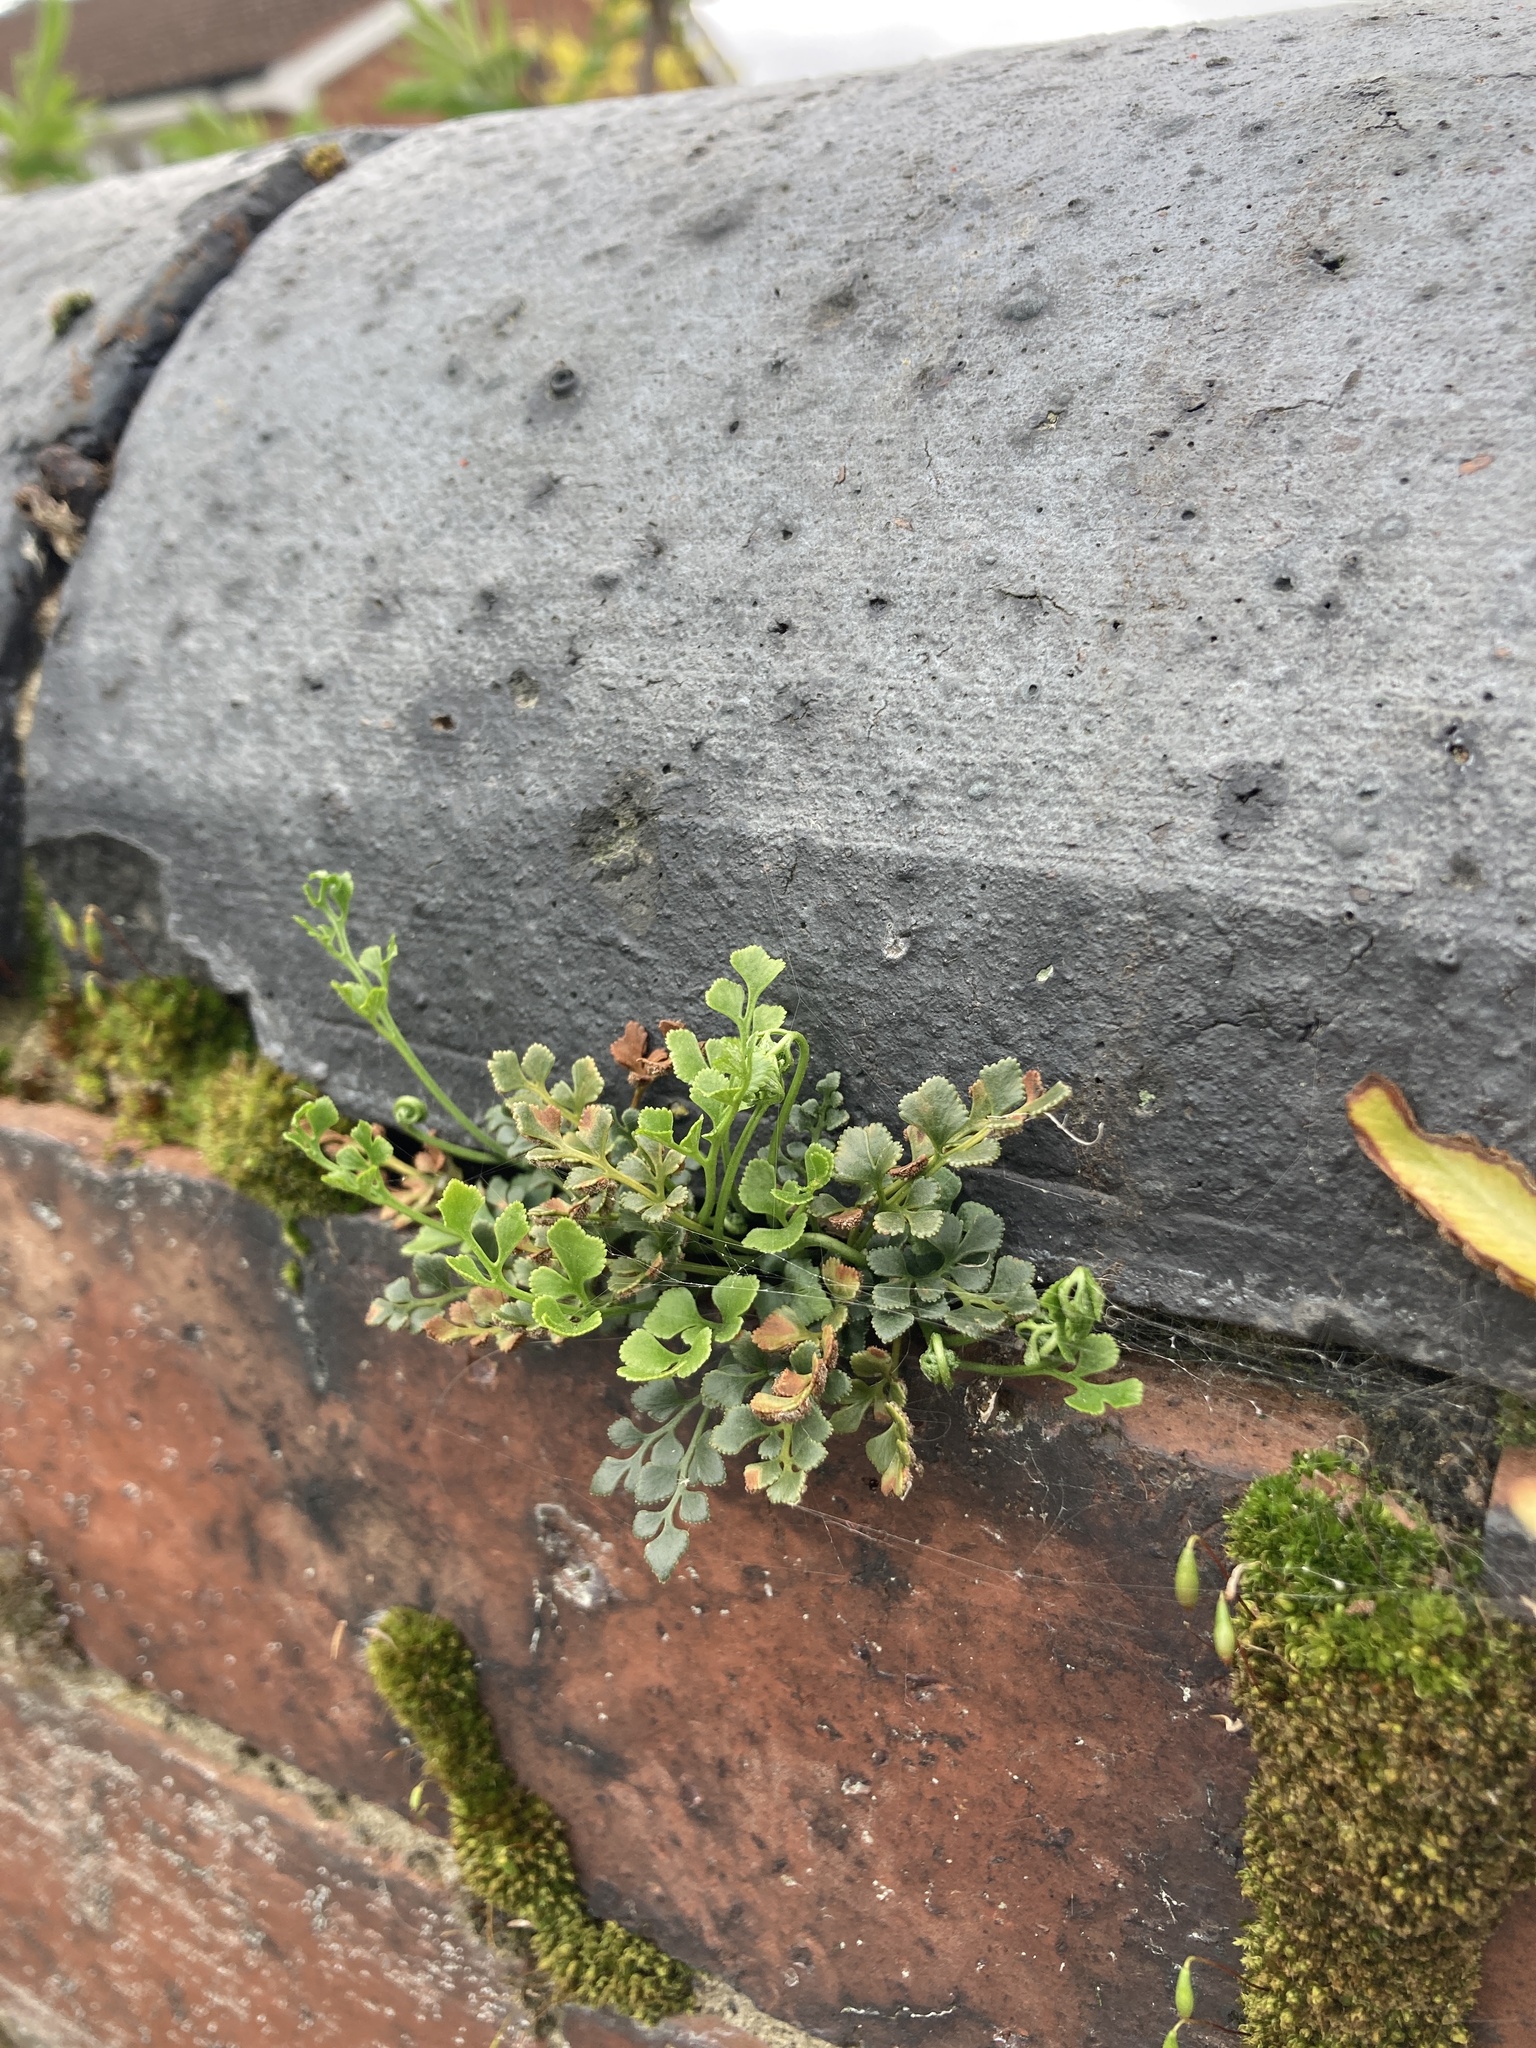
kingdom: Plantae
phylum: Tracheophyta
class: Polypodiopsida
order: Polypodiales
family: Aspleniaceae
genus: Asplenium
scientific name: Asplenium ruta-muraria
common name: Wall-rue
